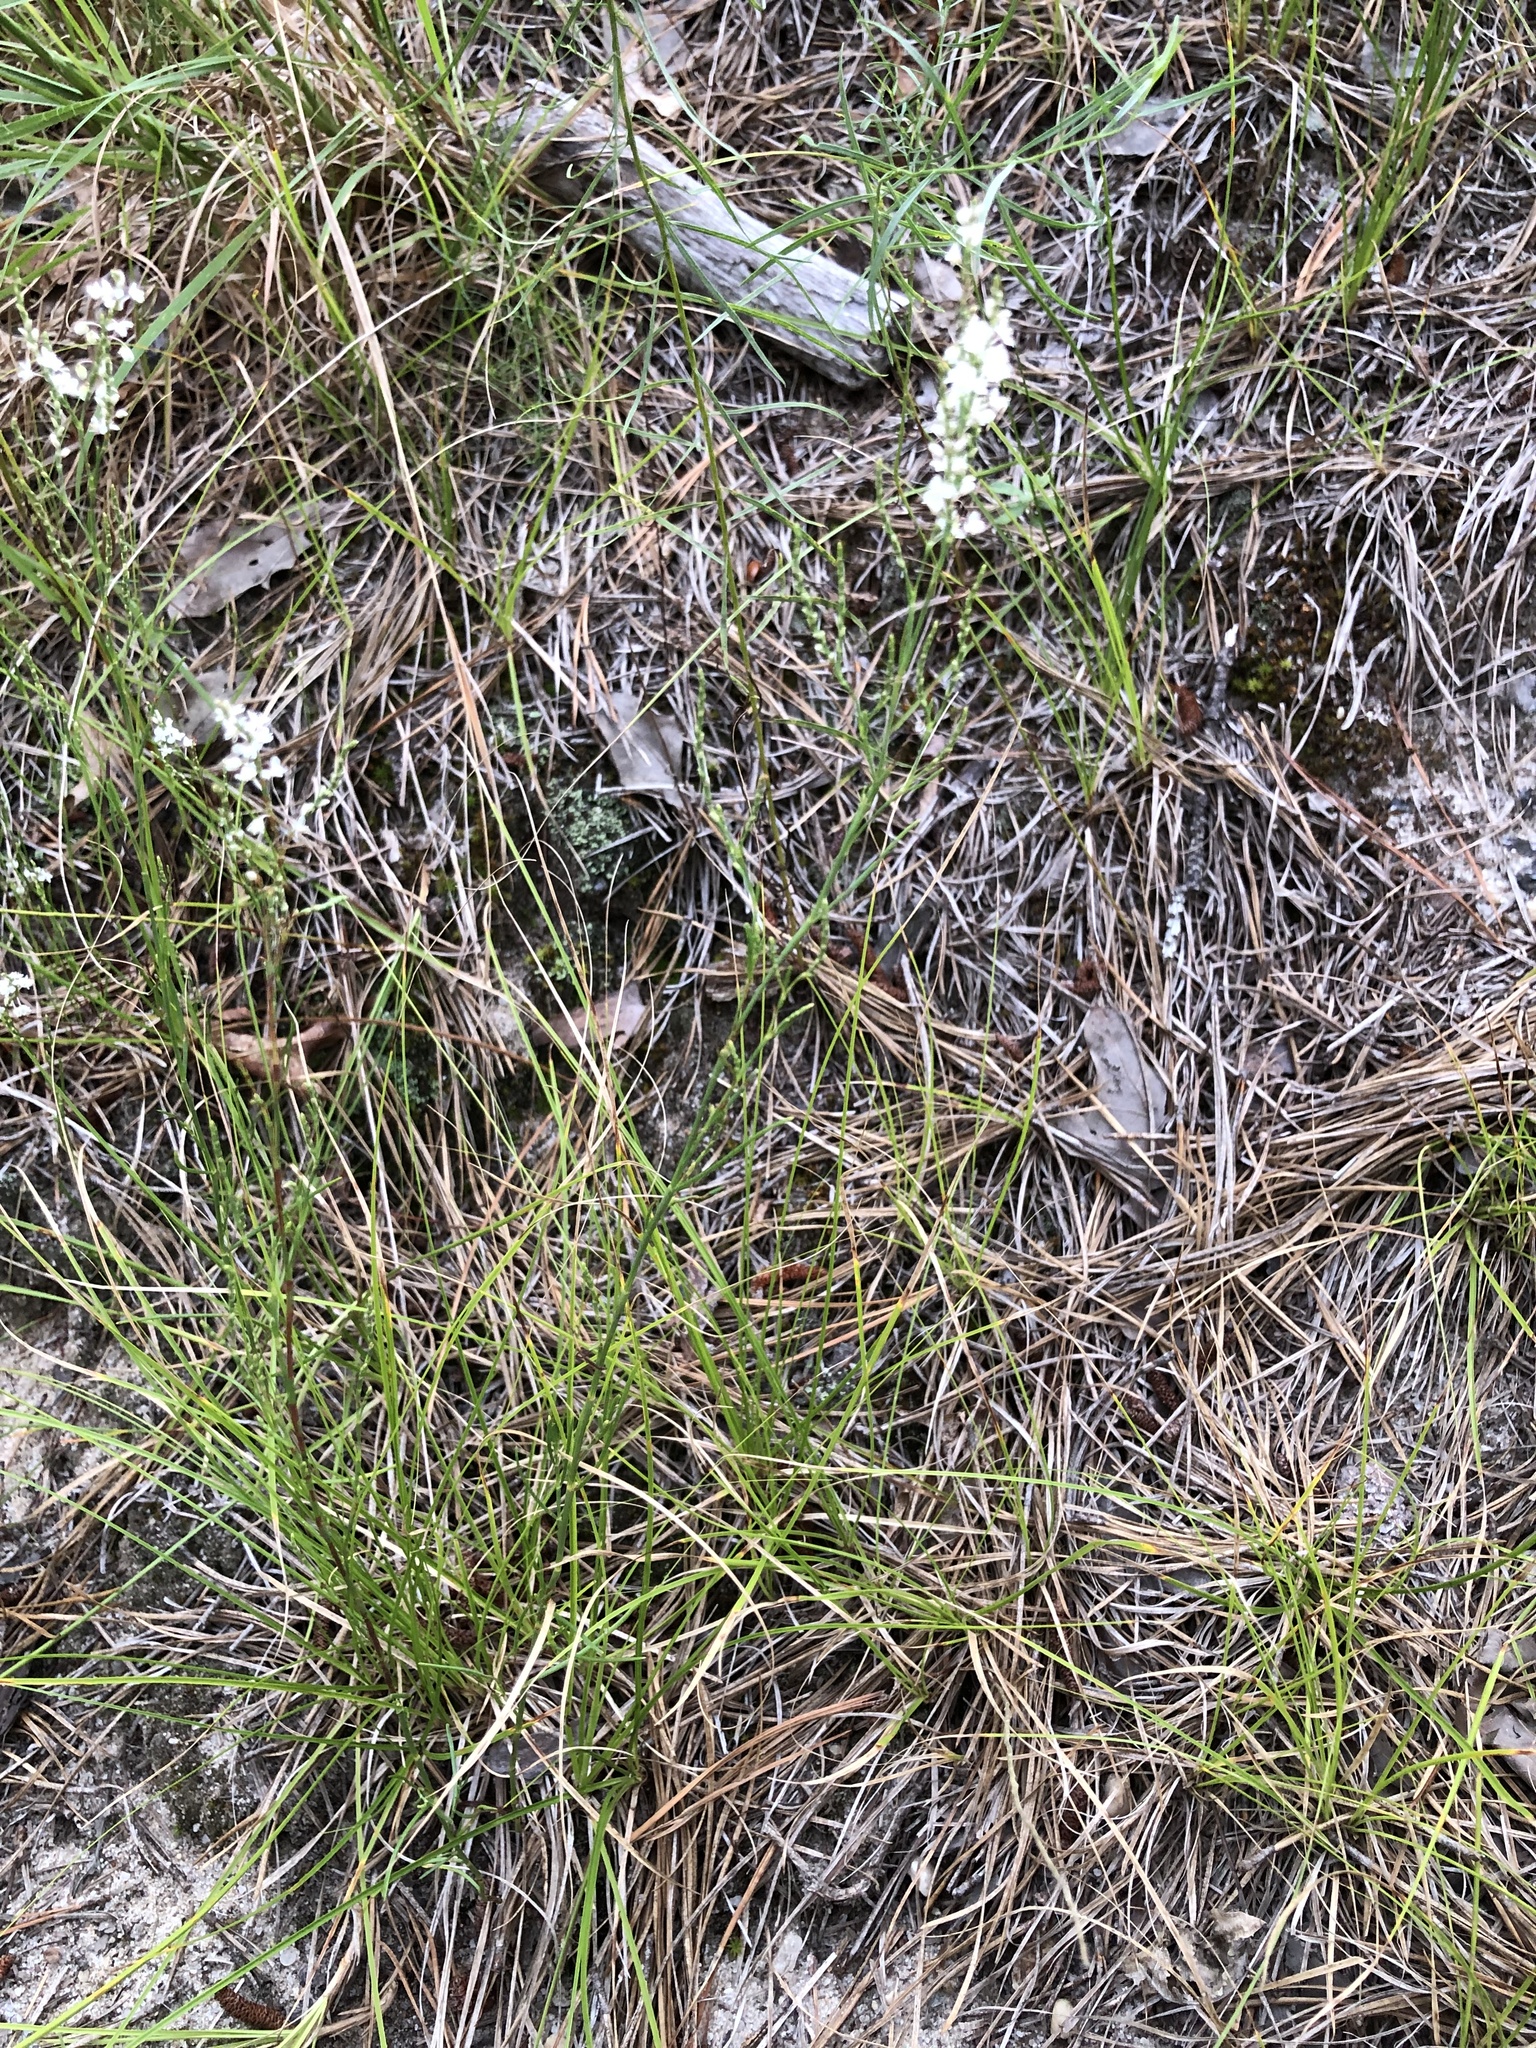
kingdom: Plantae
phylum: Tracheophyta
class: Magnoliopsida
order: Caryophyllales
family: Polygonaceae
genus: Polygonella
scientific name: Polygonella articulata
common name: Coastal jointweed
